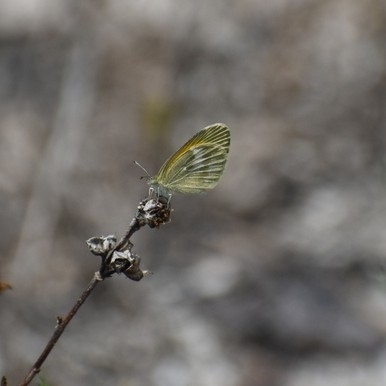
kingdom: Animalia
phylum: Arthropoda
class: Insecta
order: Lepidoptera
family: Pieridae
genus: Nathalis
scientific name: Nathalis iole
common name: Dainty sulphur
